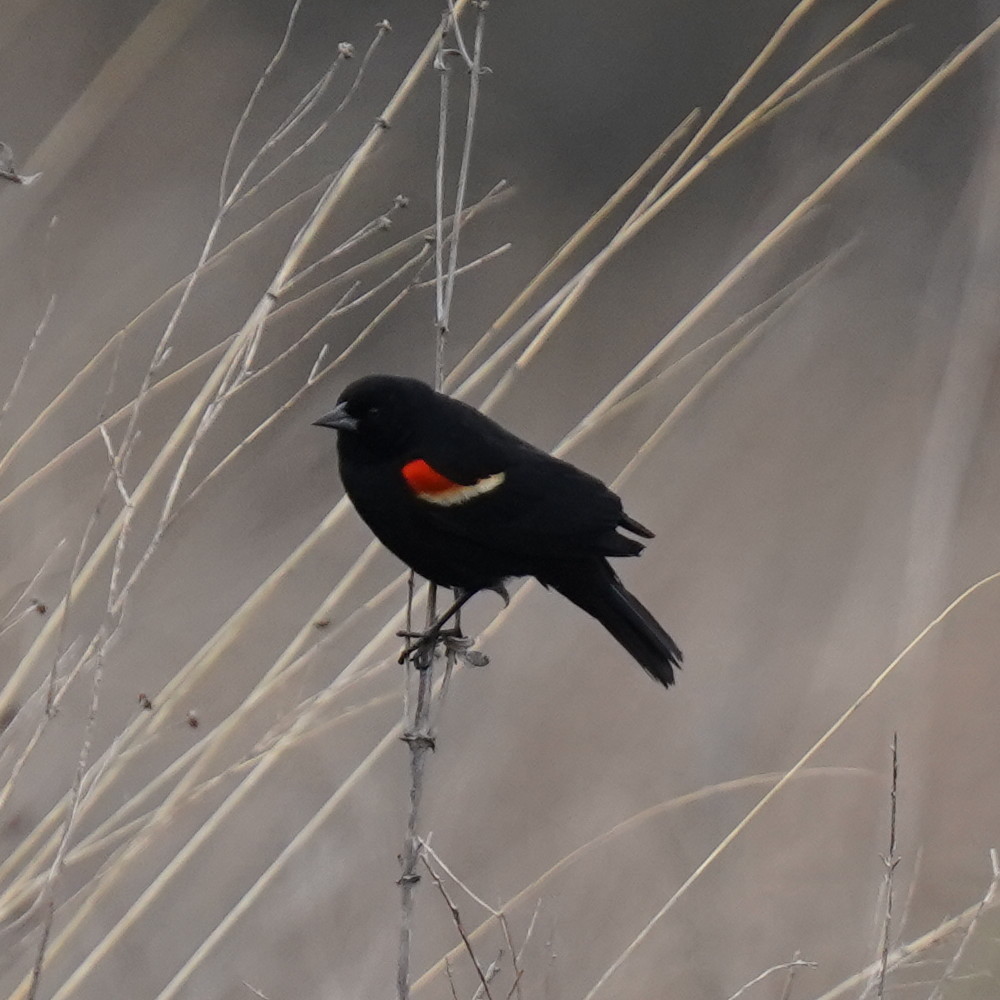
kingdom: Animalia
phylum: Chordata
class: Aves
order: Passeriformes
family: Icteridae
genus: Agelaius
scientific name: Agelaius phoeniceus
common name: Red-winged blackbird
